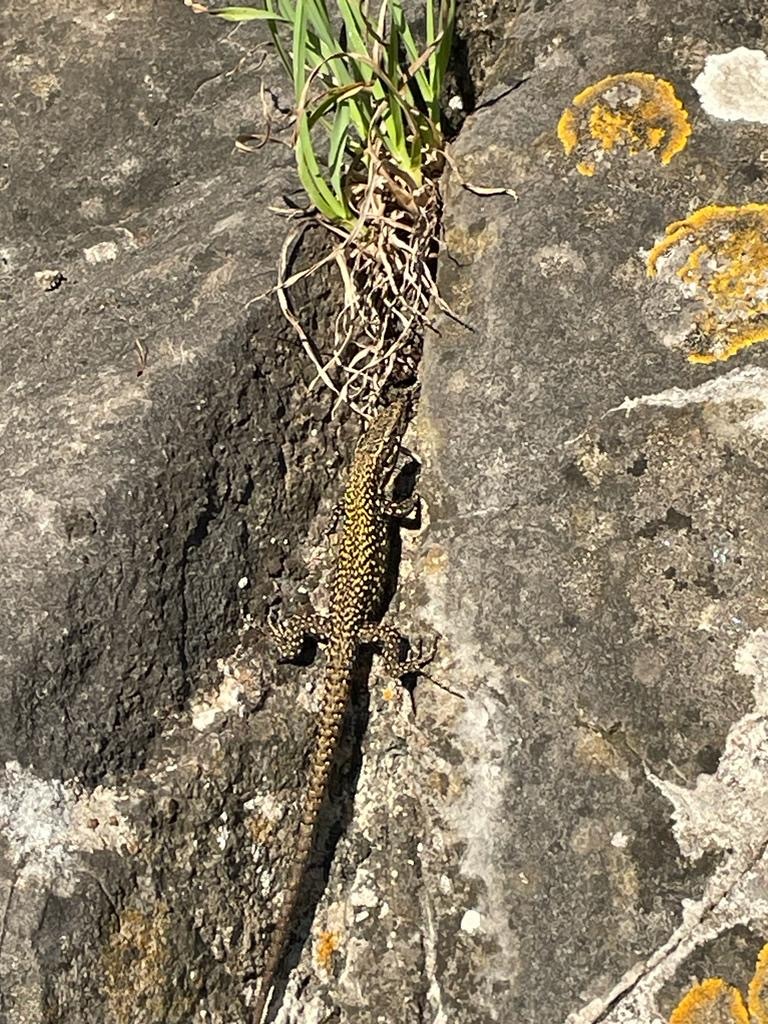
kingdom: Animalia
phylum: Chordata
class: Squamata
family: Lacertidae
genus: Podarcis
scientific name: Podarcis muralis
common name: Common wall lizard
